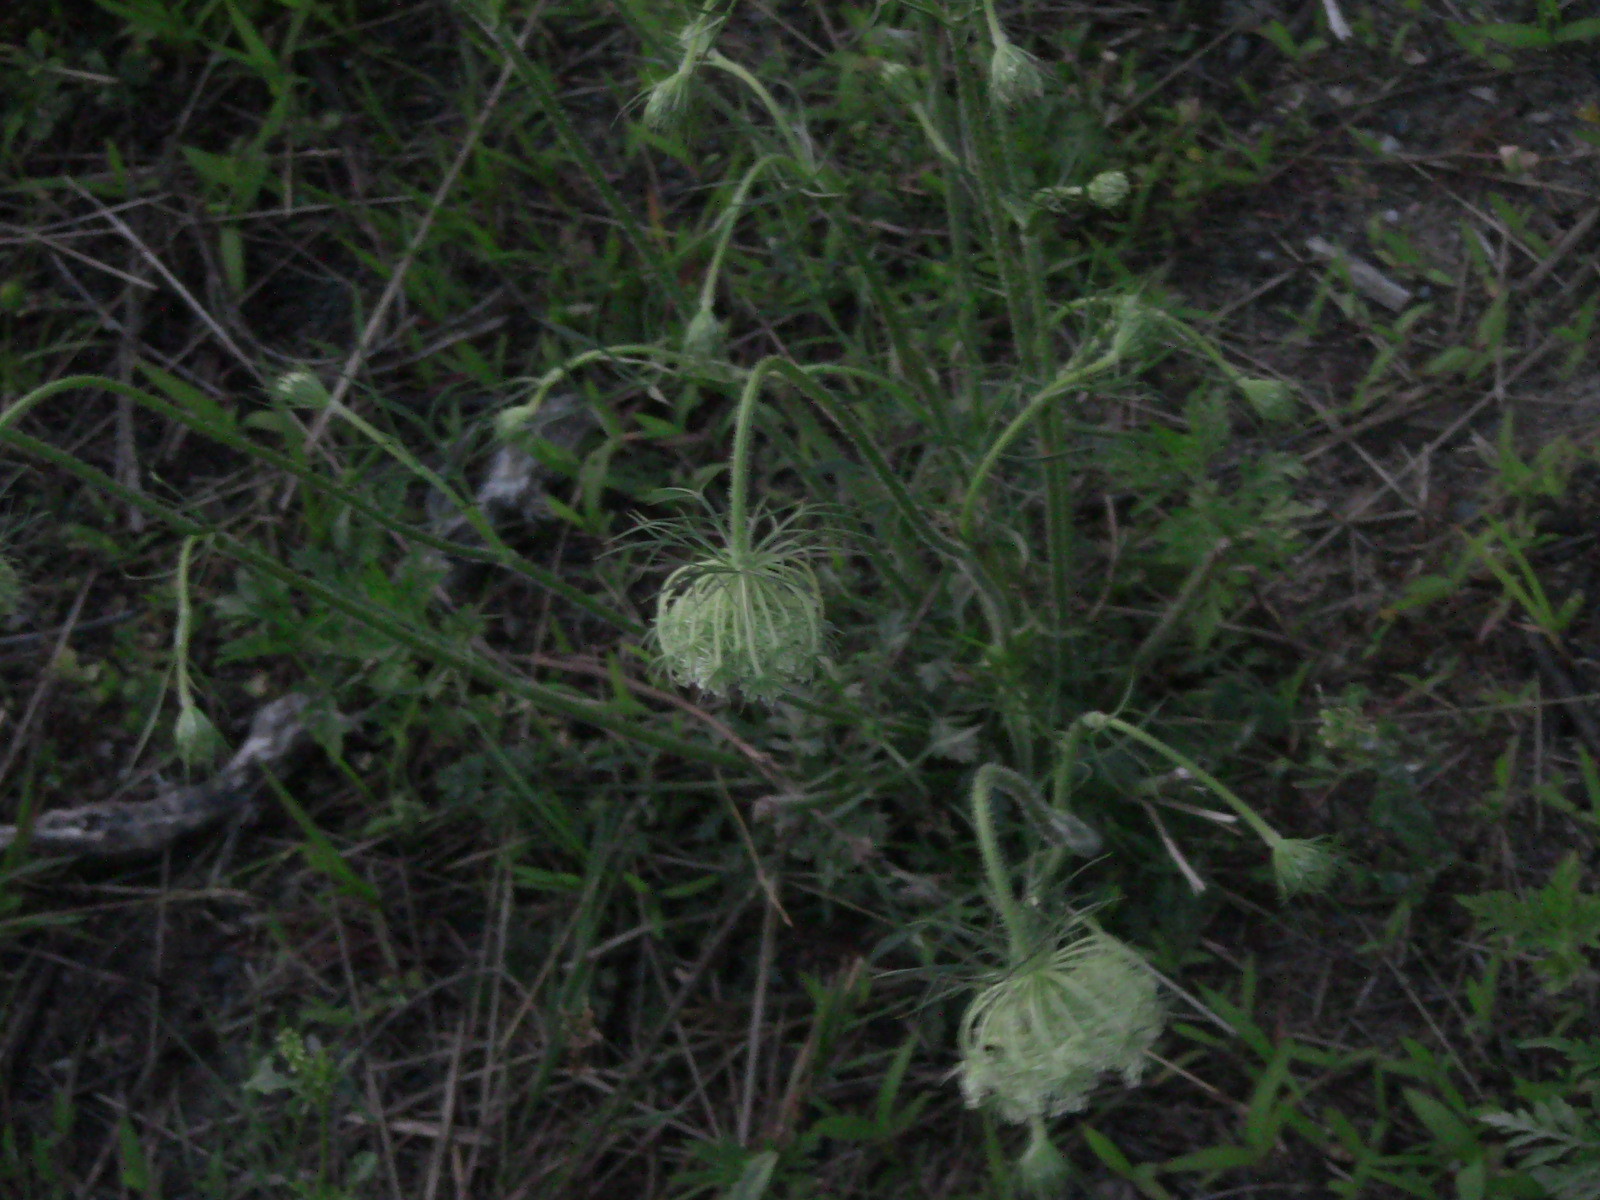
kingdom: Plantae
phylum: Tracheophyta
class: Magnoliopsida
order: Apiales
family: Apiaceae
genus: Daucus
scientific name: Daucus carota
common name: Wild carrot
